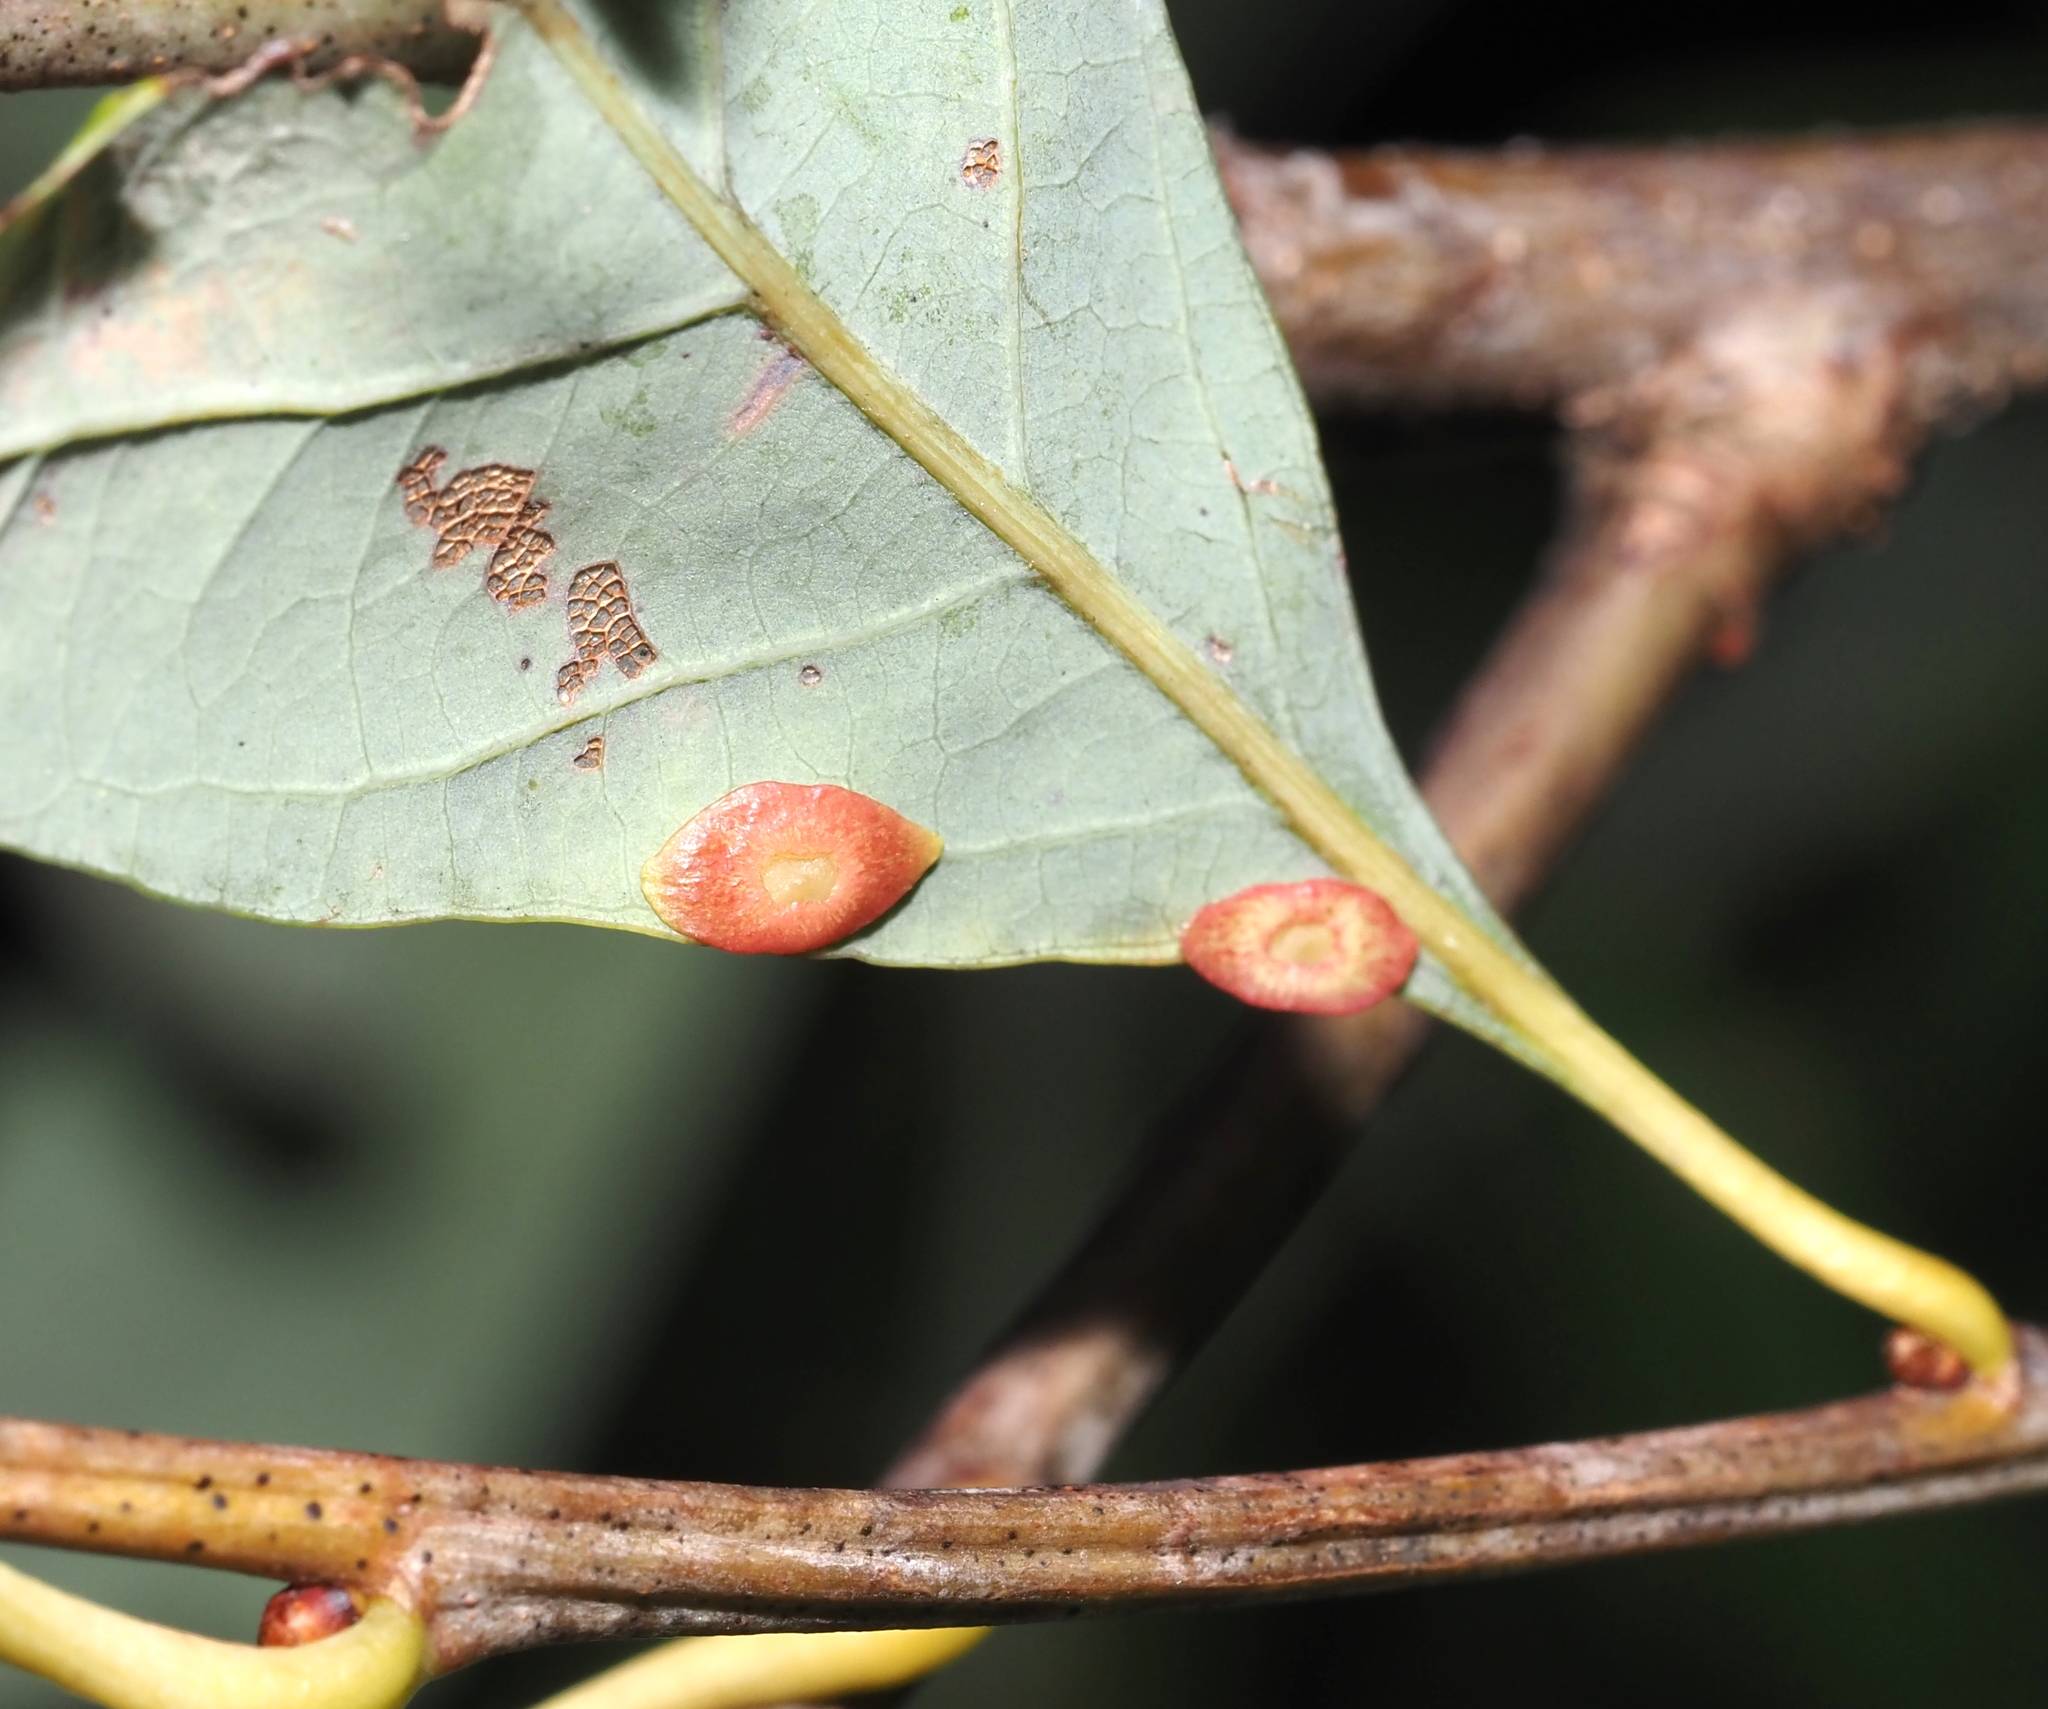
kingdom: Animalia
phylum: Arthropoda
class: Insecta
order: Hymenoptera
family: Cynipidae
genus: Phylloteras
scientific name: Phylloteras
